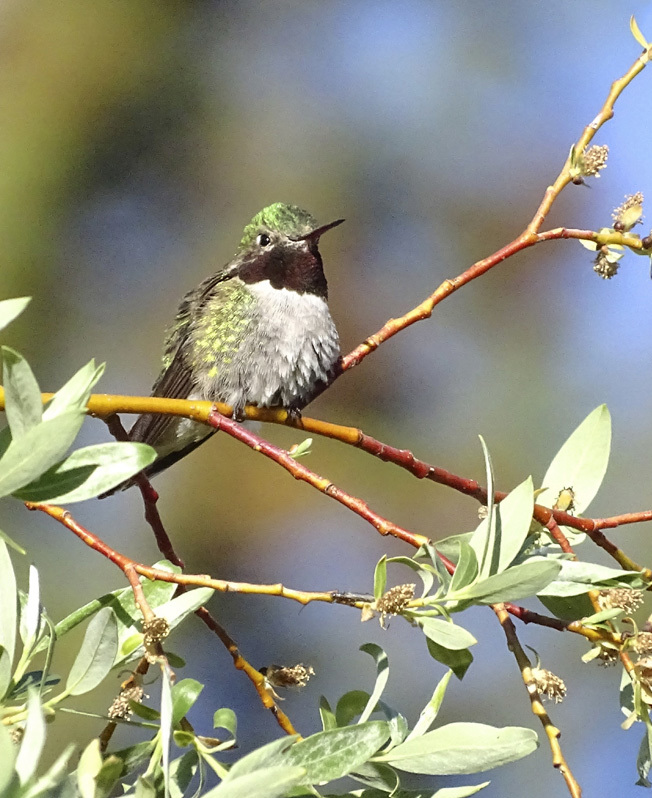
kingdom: Animalia
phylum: Chordata
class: Aves
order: Apodiformes
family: Trochilidae
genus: Selasphorus
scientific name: Selasphorus platycercus
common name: Broad-tailed hummingbird
